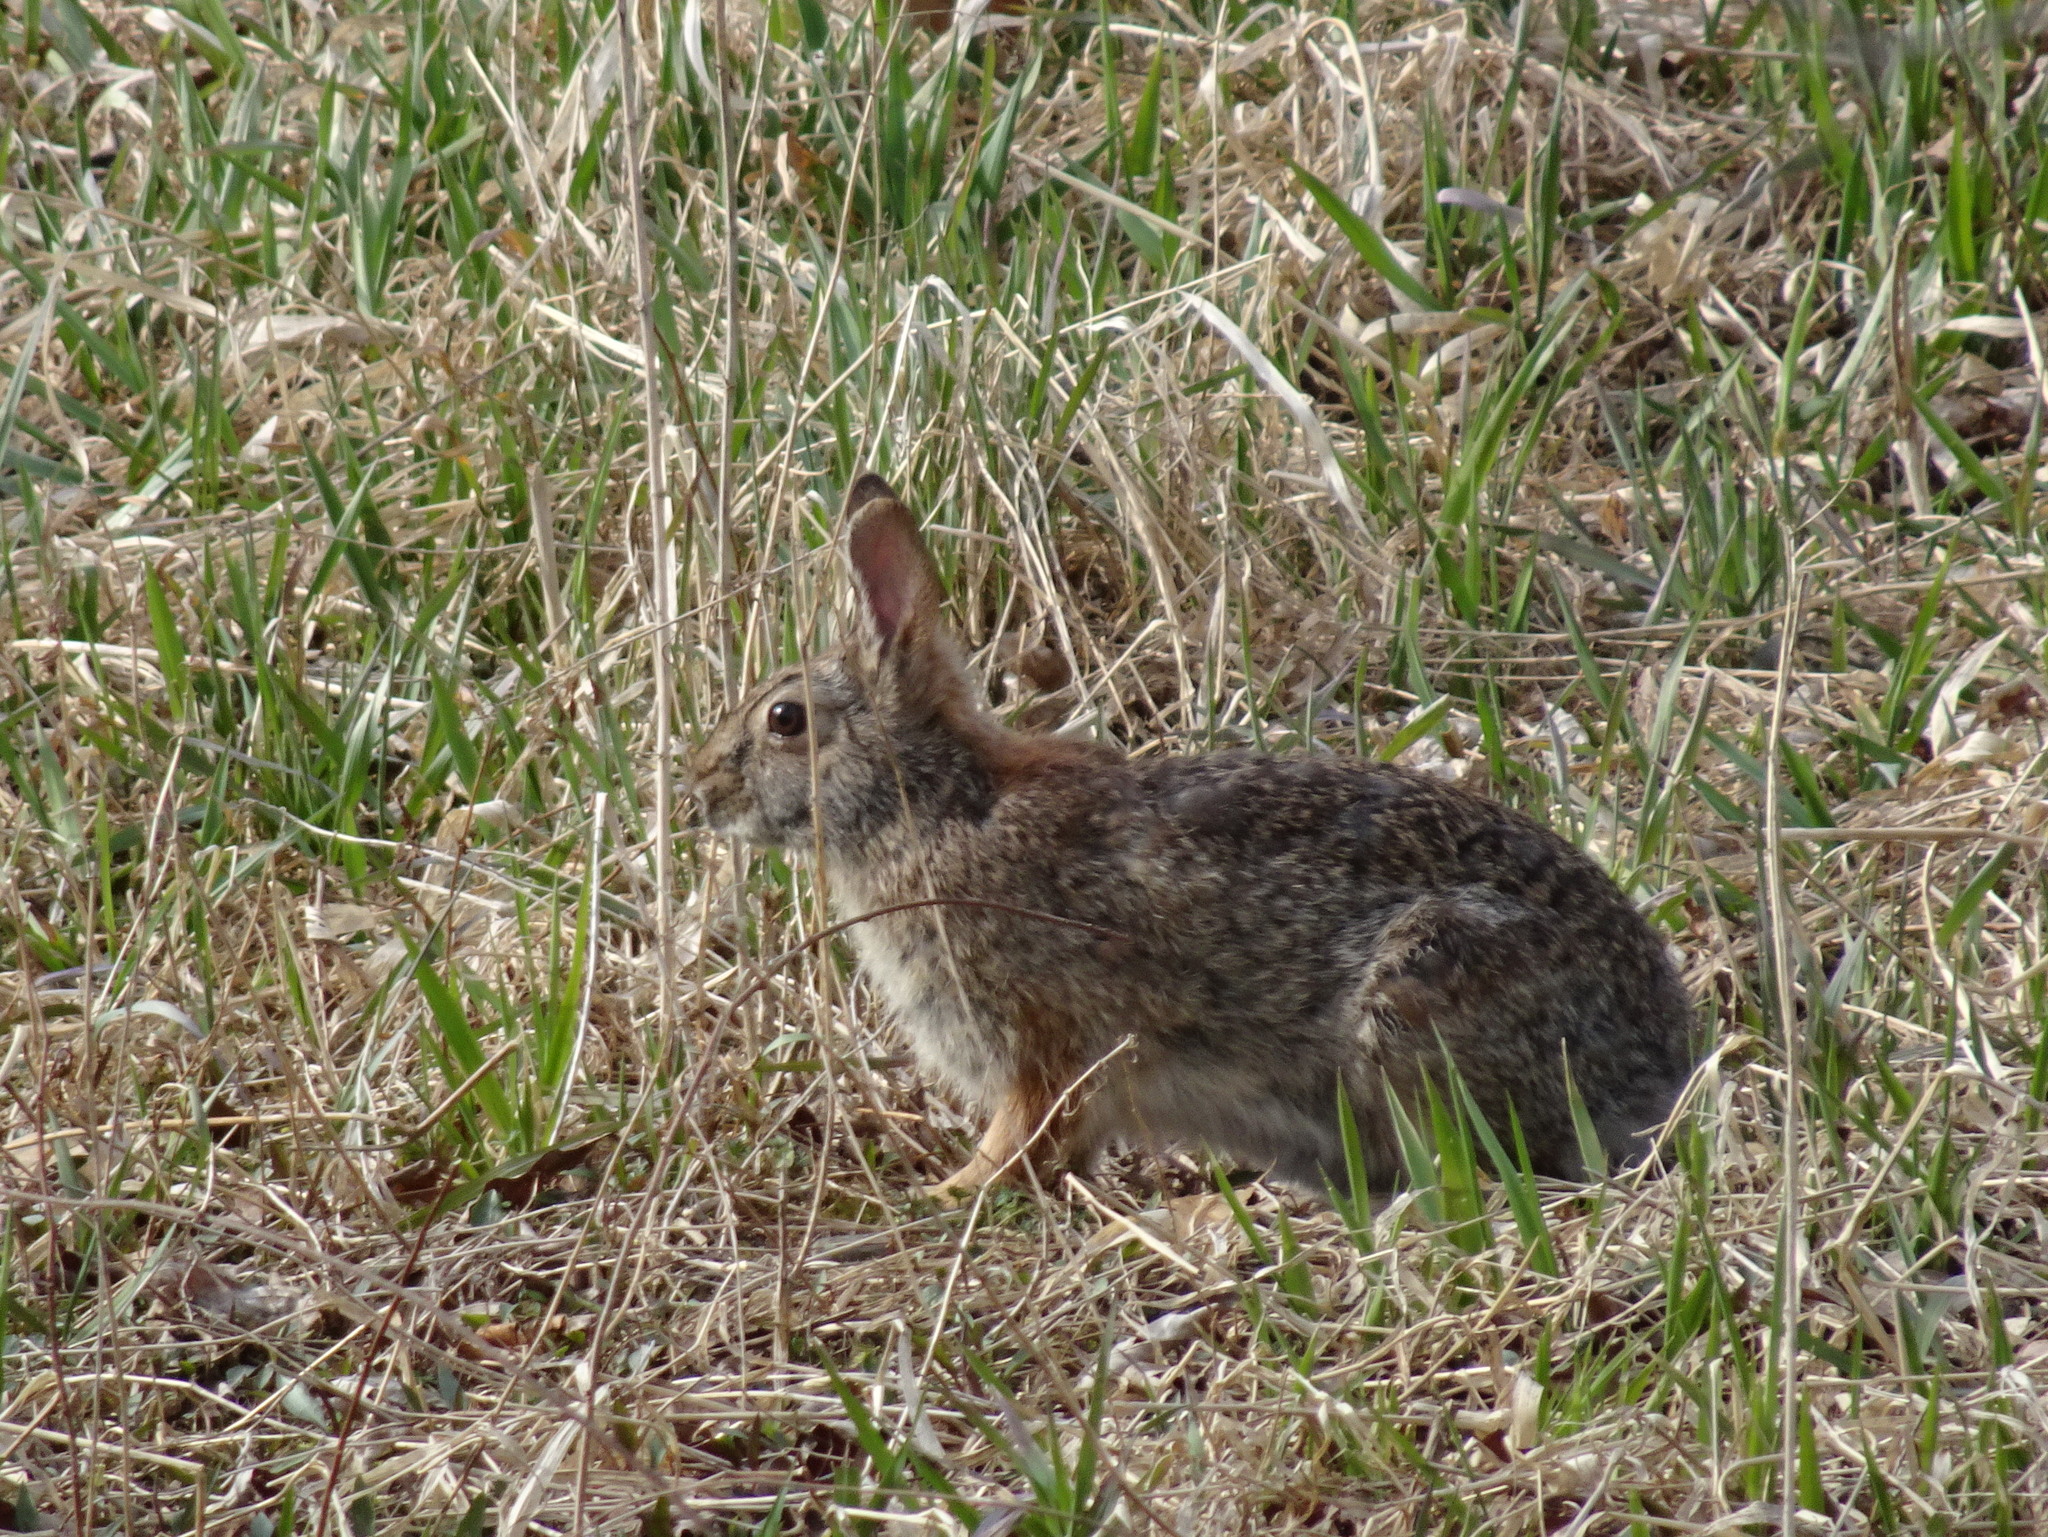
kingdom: Animalia
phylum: Chordata
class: Mammalia
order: Lagomorpha
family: Leporidae
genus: Sylvilagus
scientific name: Sylvilagus floridanus
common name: Eastern cottontail
